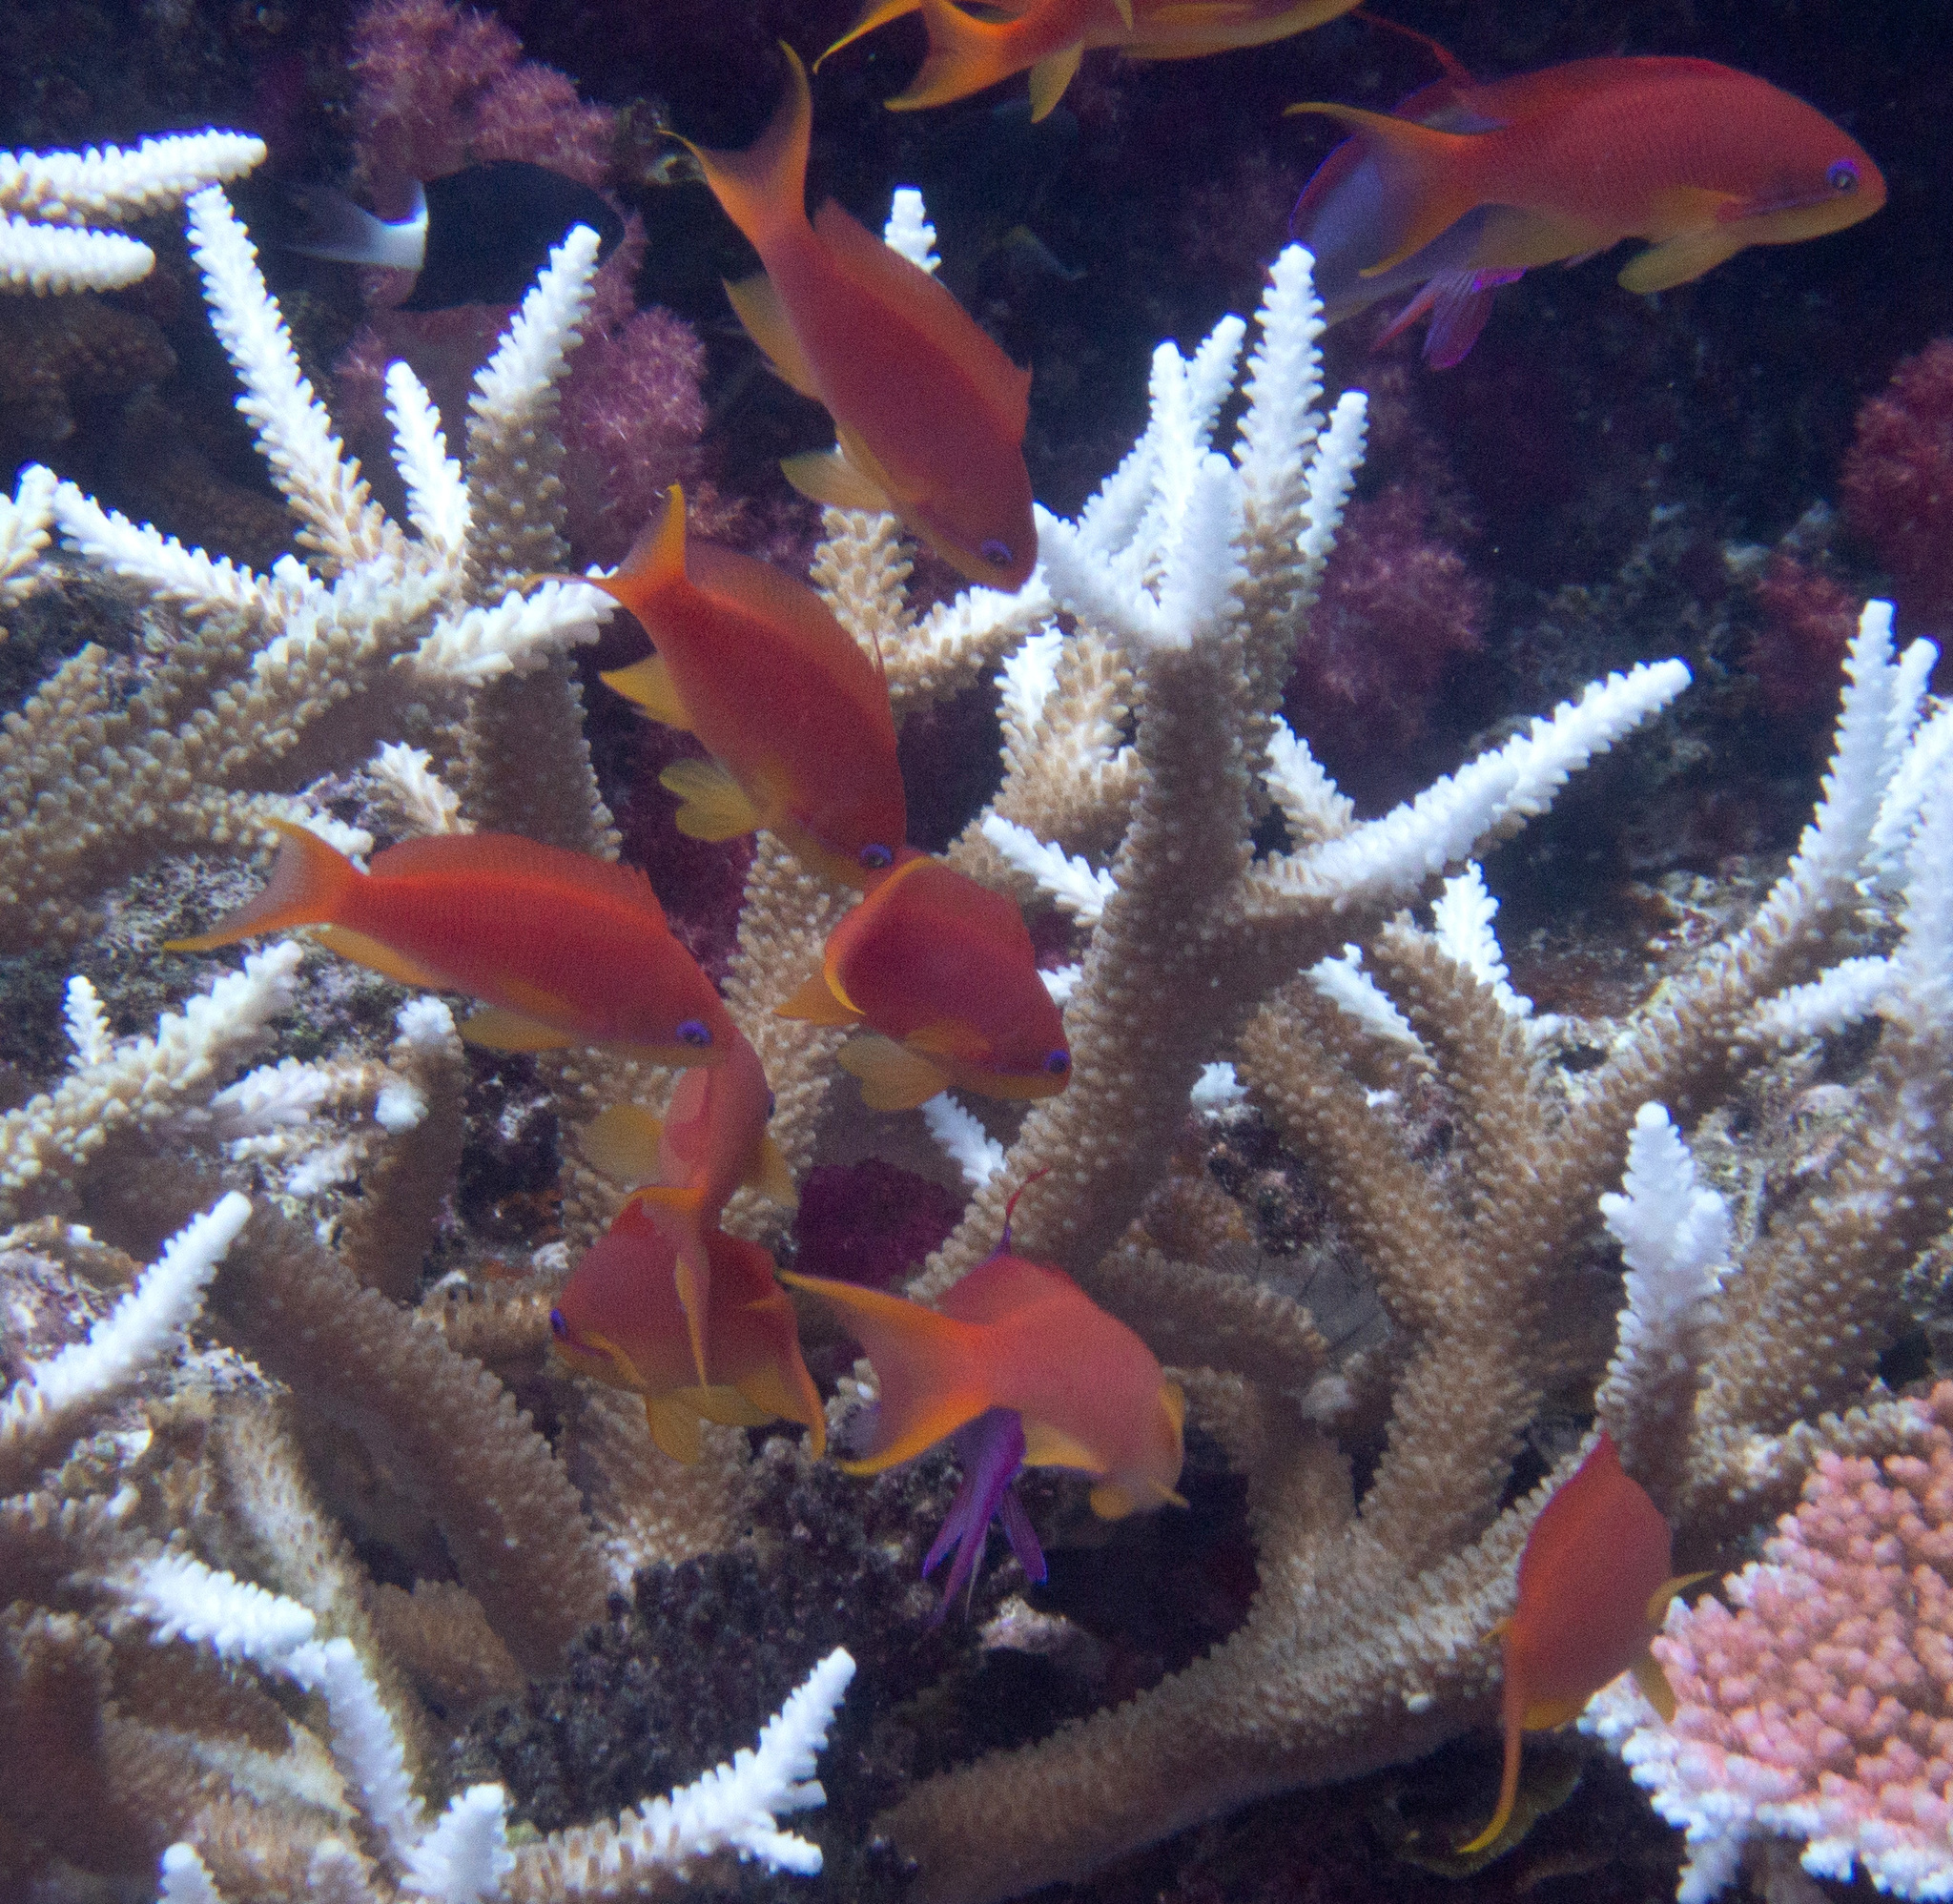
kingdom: Animalia
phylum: Chordata
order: Perciformes
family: Serranidae
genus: Pseudanthias
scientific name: Pseudanthias squamipinnis
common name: Scalefin anthias
